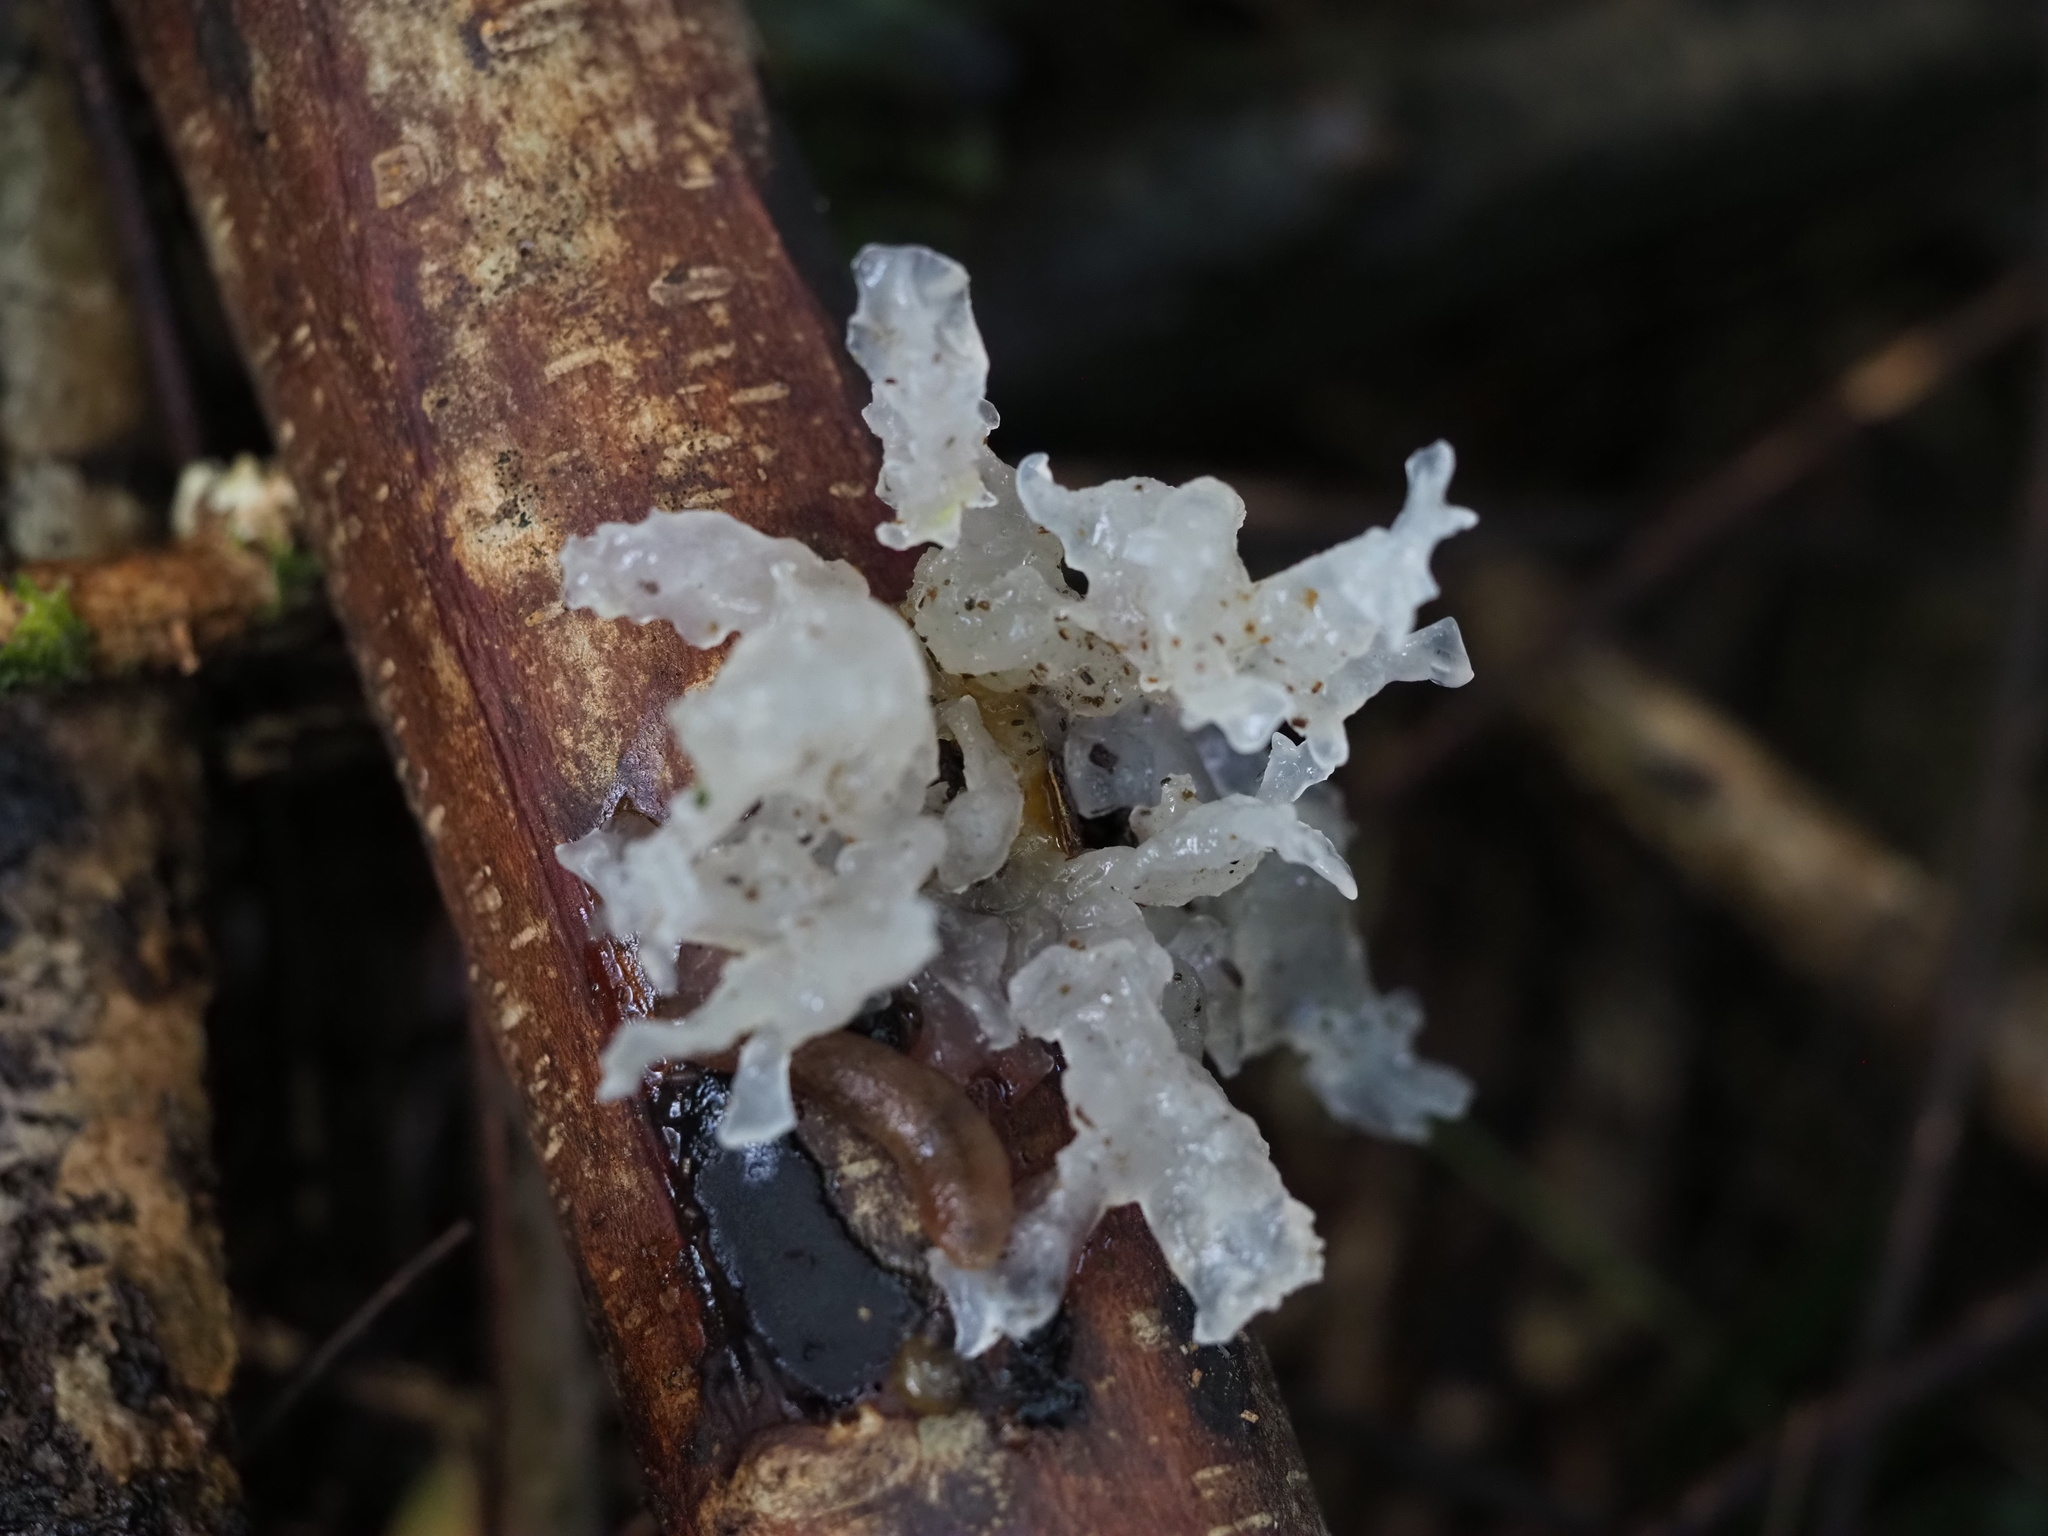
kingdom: Fungi
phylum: Basidiomycota
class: Tremellomycetes
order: Tremellales
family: Tremellaceae
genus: Tremella
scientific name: Tremella fuciformis
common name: Snow fungus
